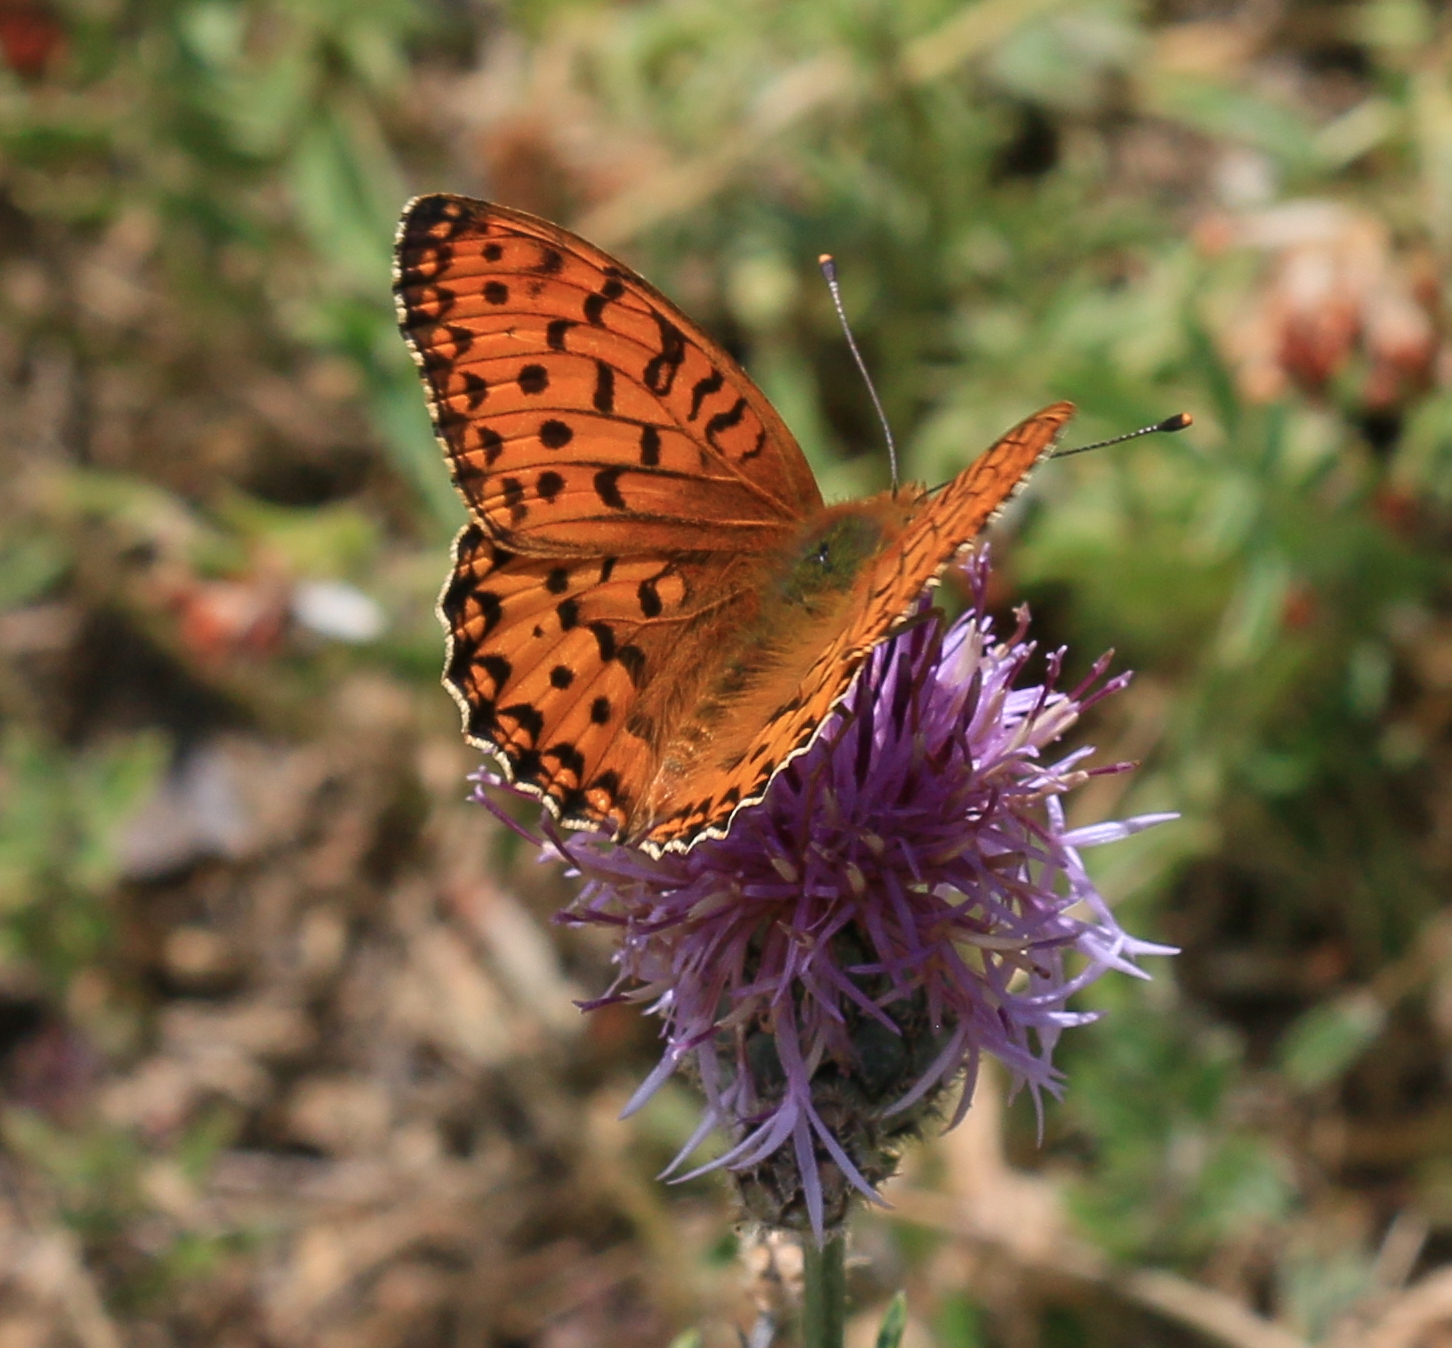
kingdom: Animalia
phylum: Arthropoda
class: Insecta
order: Lepidoptera
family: Nymphalidae
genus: Speyeria
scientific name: Speyeria aglaja
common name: Dark green fritillary
